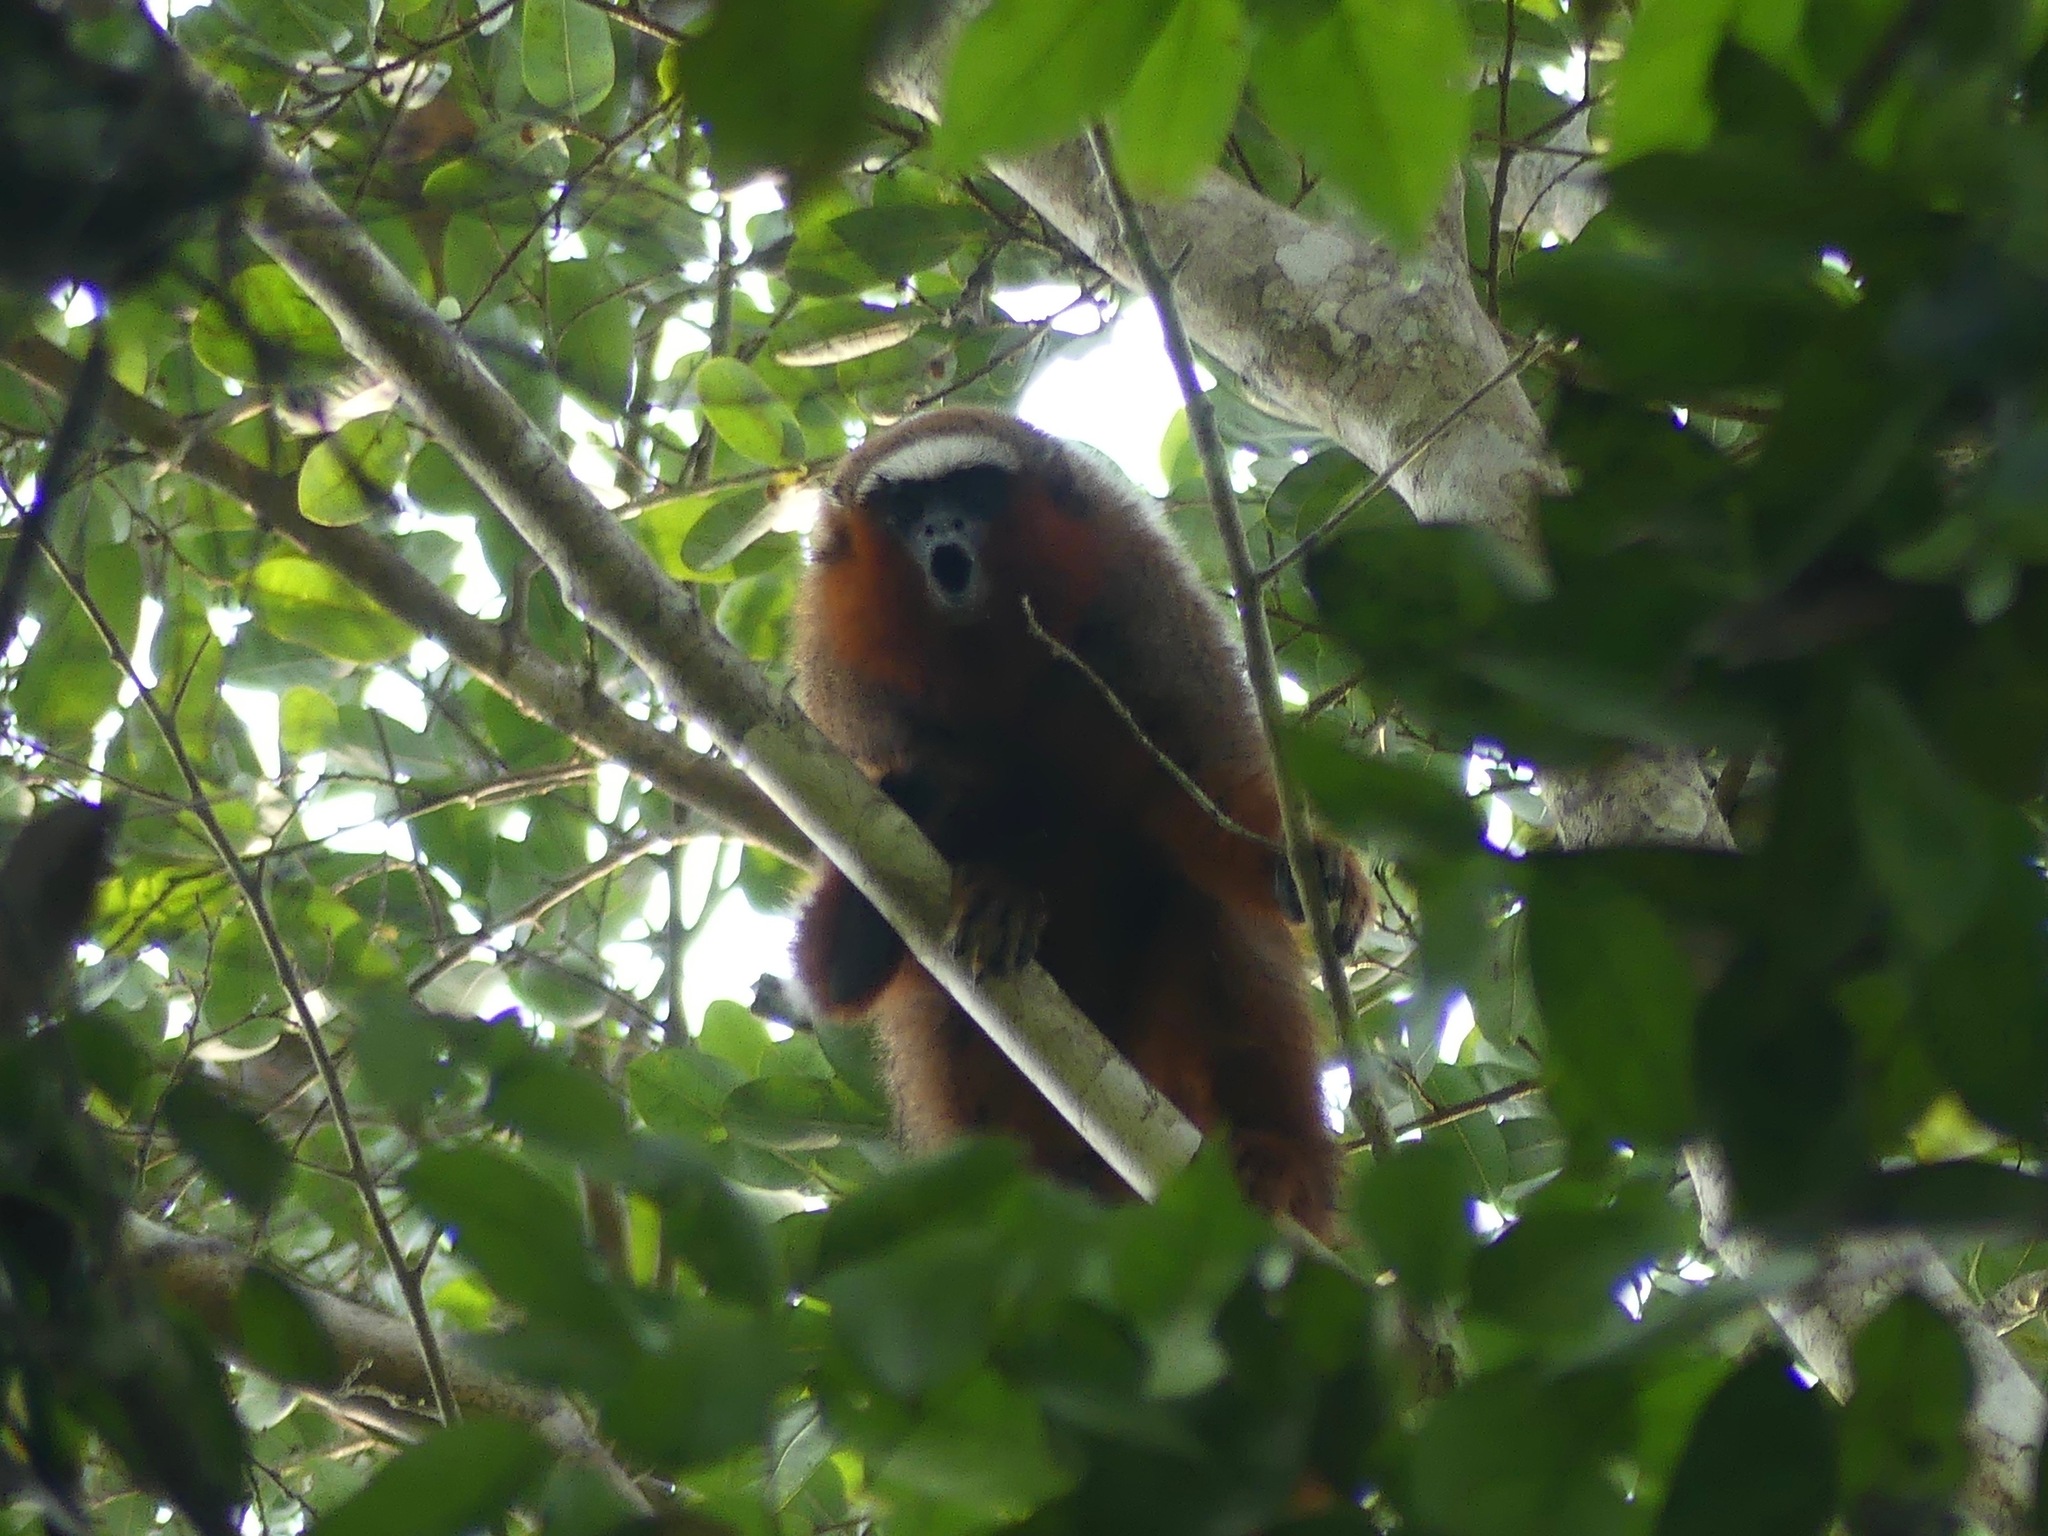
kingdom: Animalia
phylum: Chordata
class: Mammalia
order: Primates
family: Pitheciidae
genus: Plecturocebus
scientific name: Plecturocebus discolor
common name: Red-crowned titi
